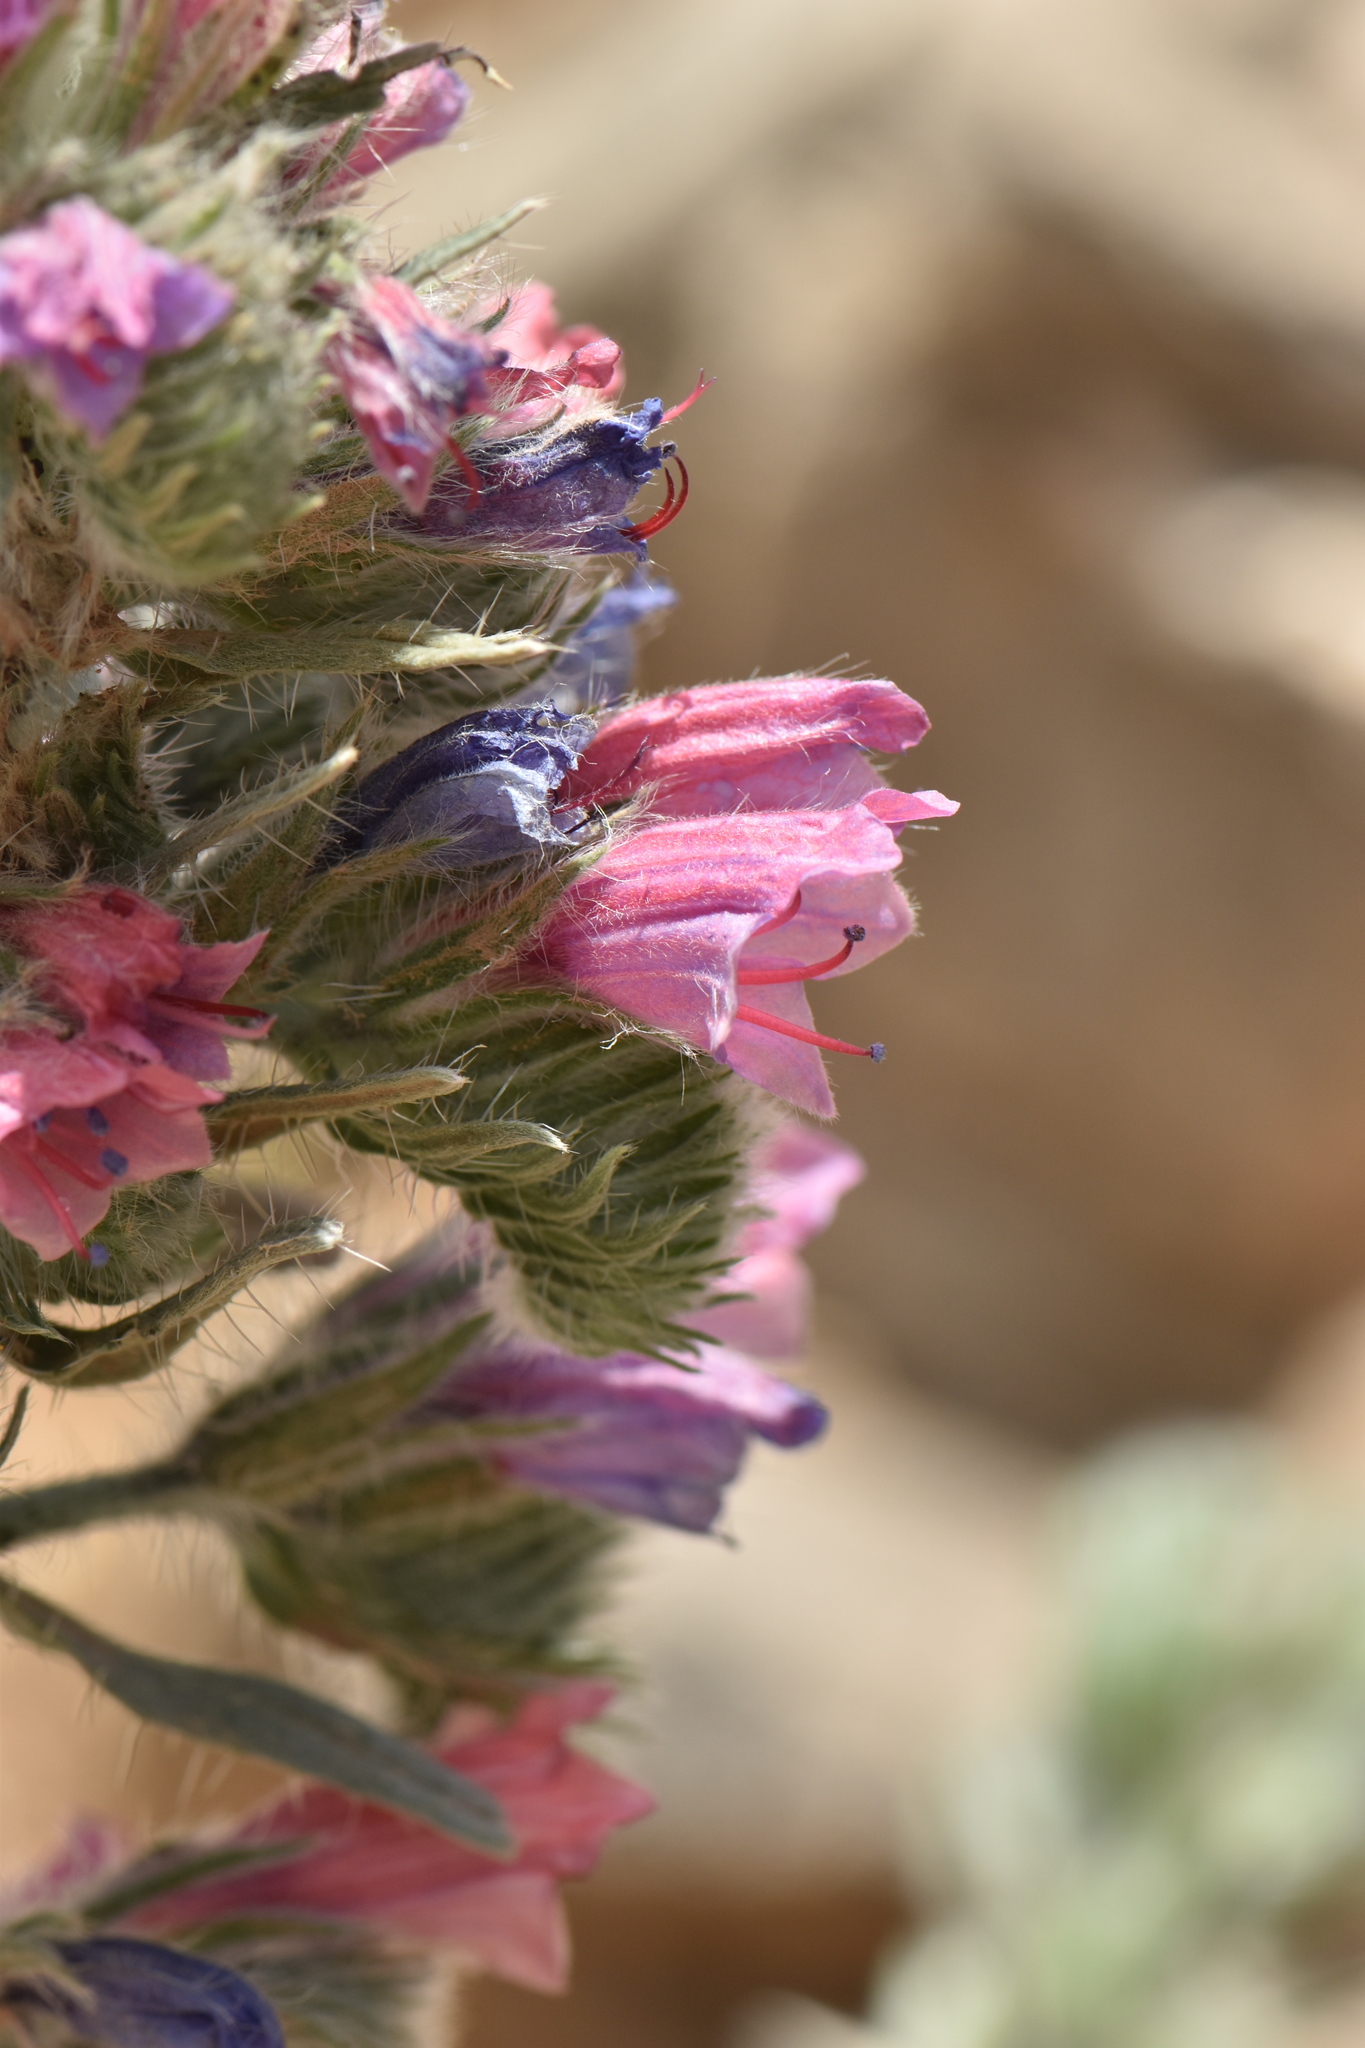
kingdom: Plantae
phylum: Tracheophyta
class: Magnoliopsida
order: Boraginales
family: Boraginaceae
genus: Echium
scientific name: Echium albicans
